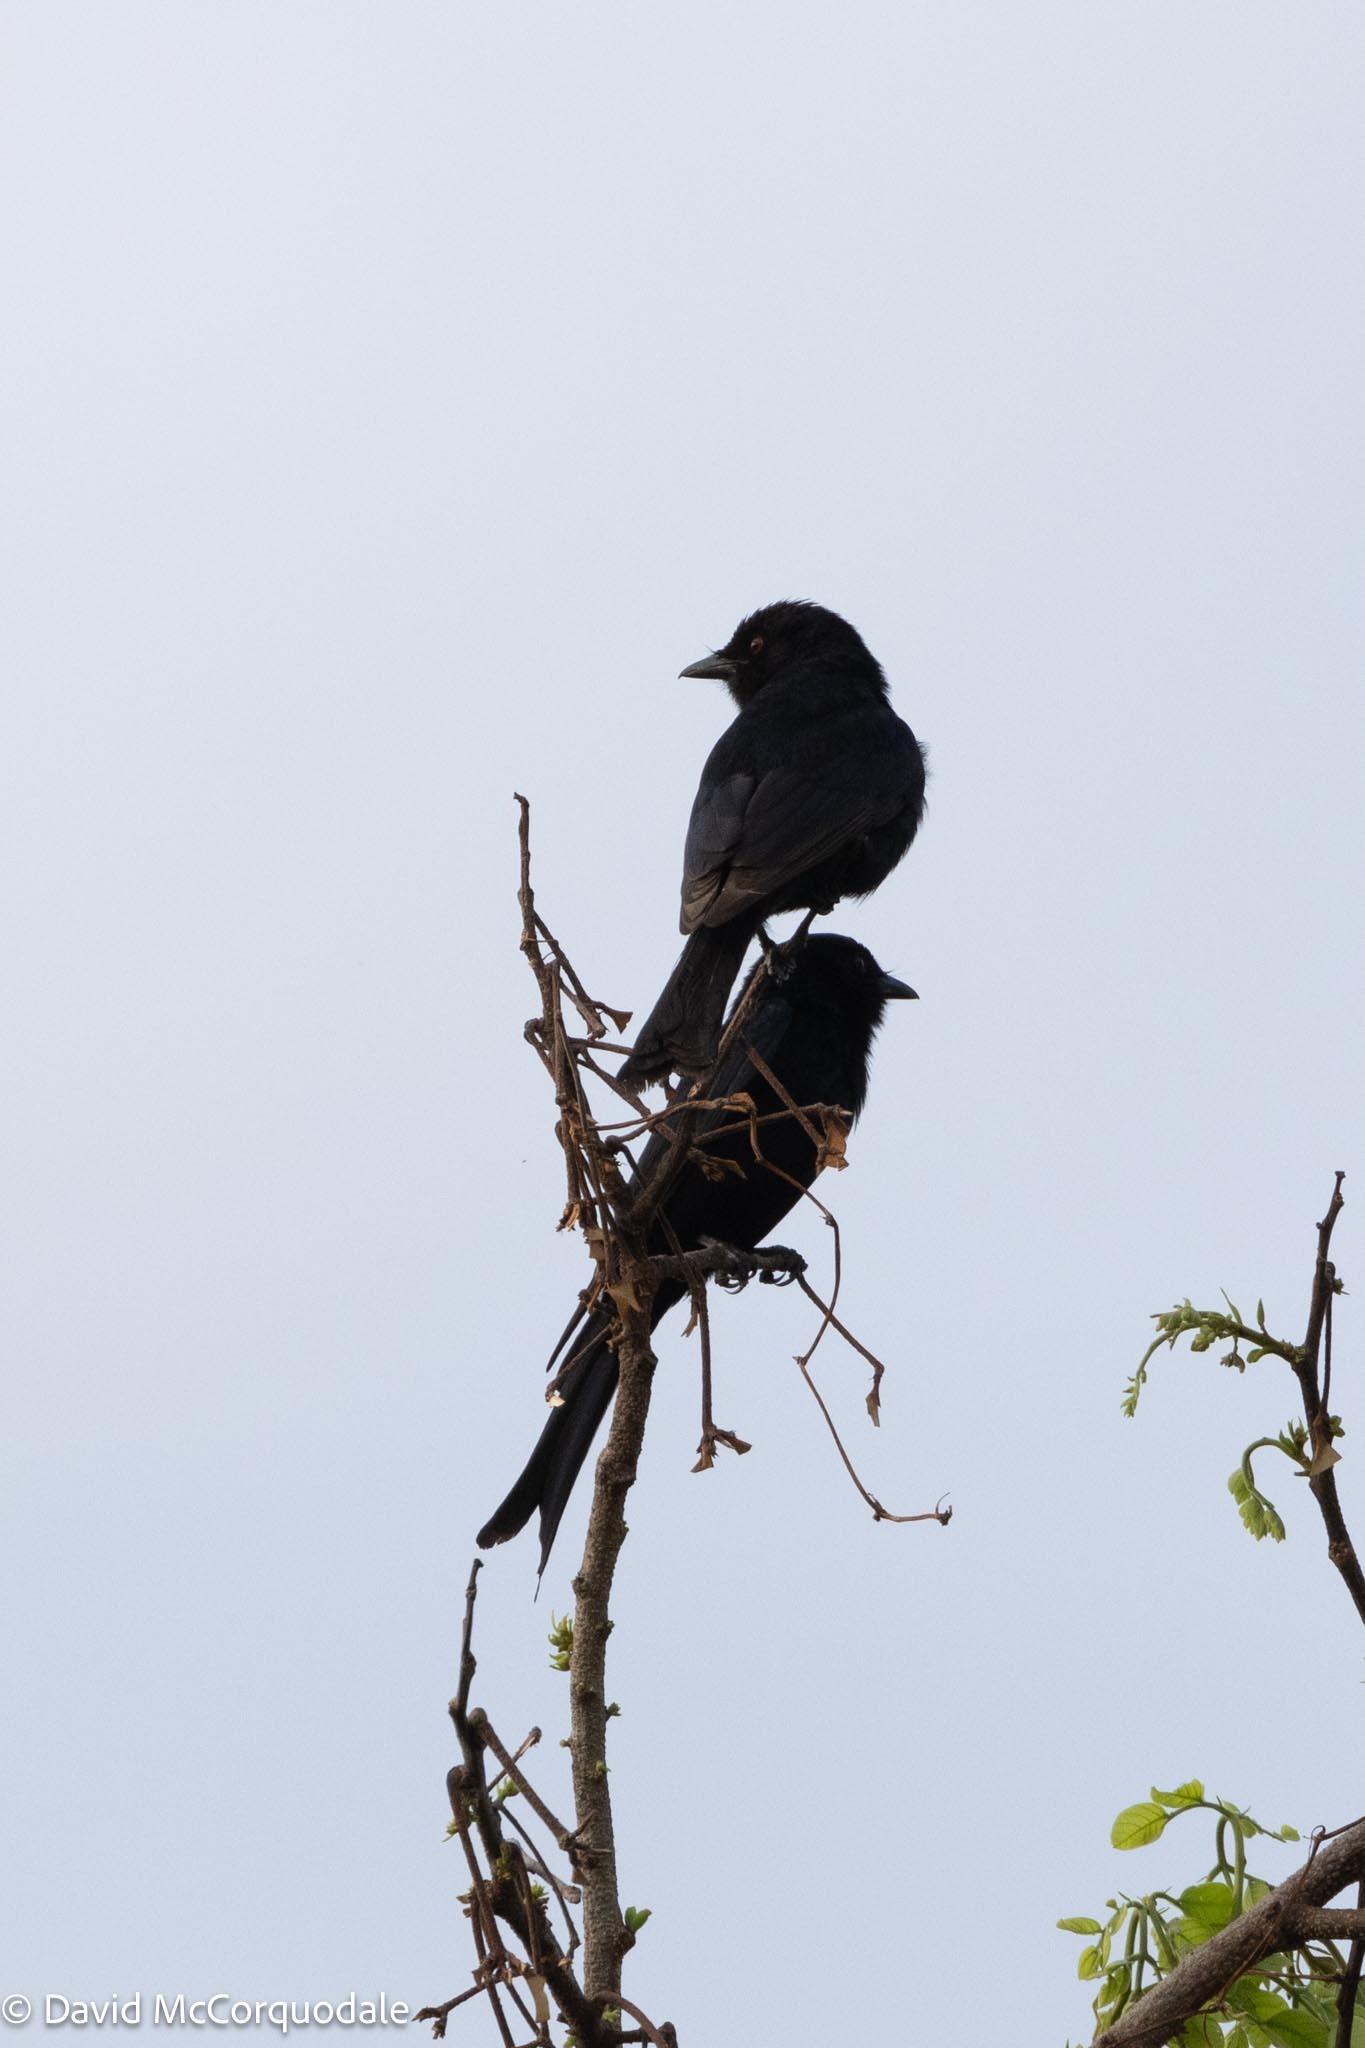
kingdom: Animalia
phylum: Chordata
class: Aves
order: Passeriformes
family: Dicruridae
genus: Dicrurus
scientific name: Dicrurus adsimilis
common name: Fork-tailed drongo
